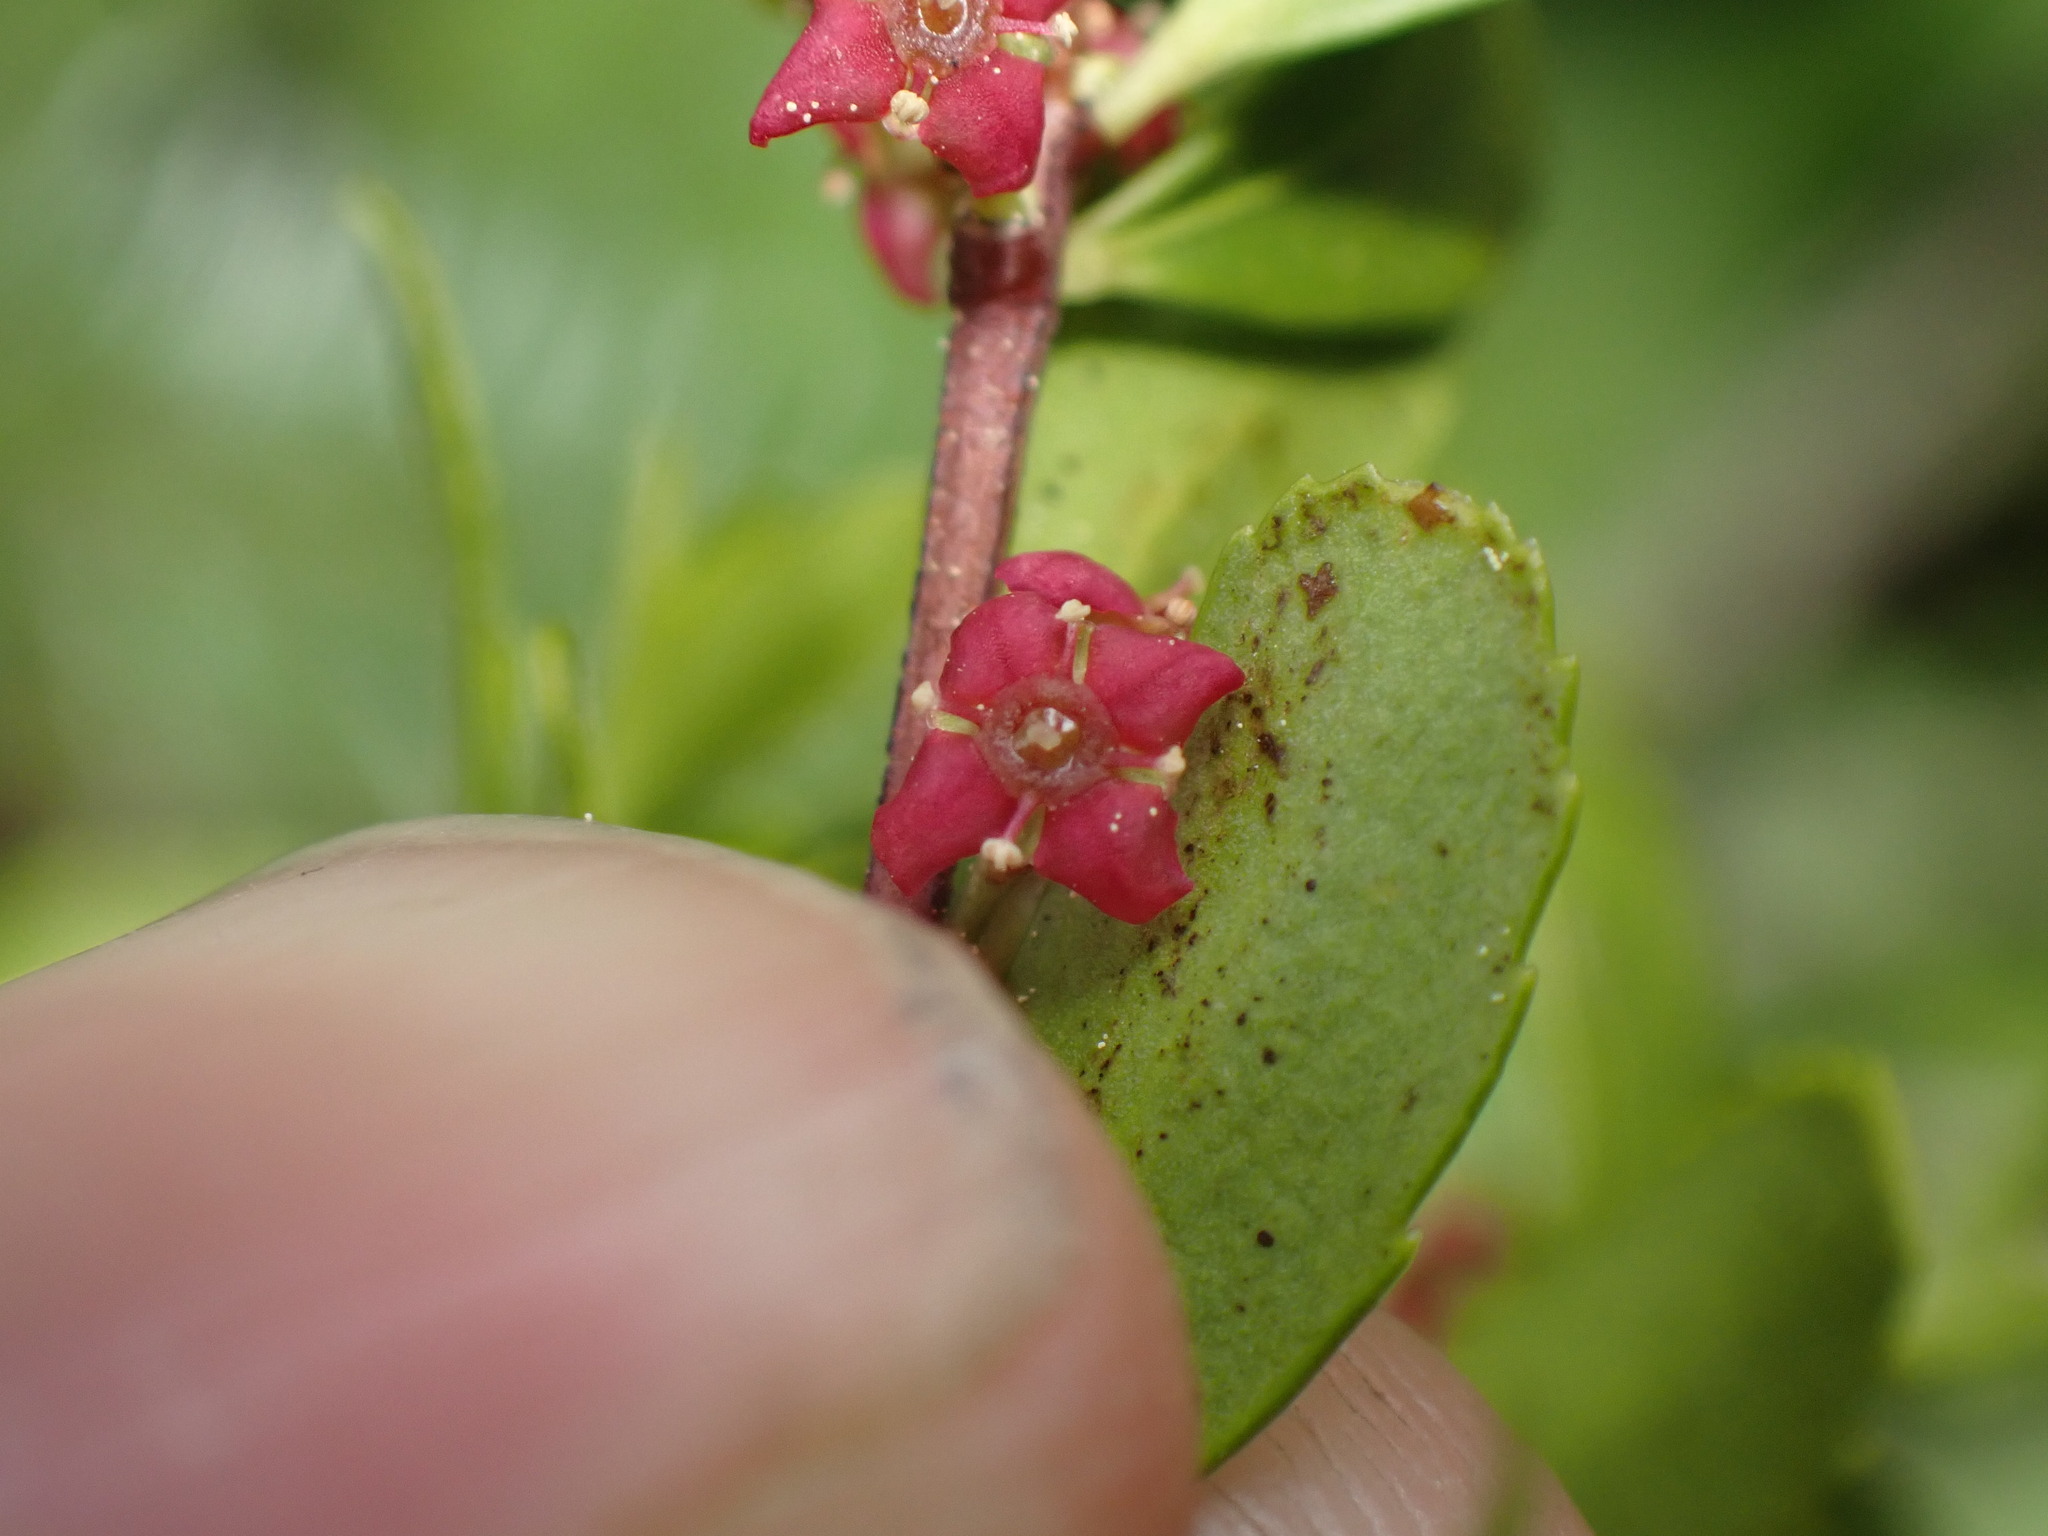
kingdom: Plantae
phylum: Tracheophyta
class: Magnoliopsida
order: Celastrales
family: Celastraceae
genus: Paxistima
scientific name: Paxistima myrsinites
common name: Mountain-lover
